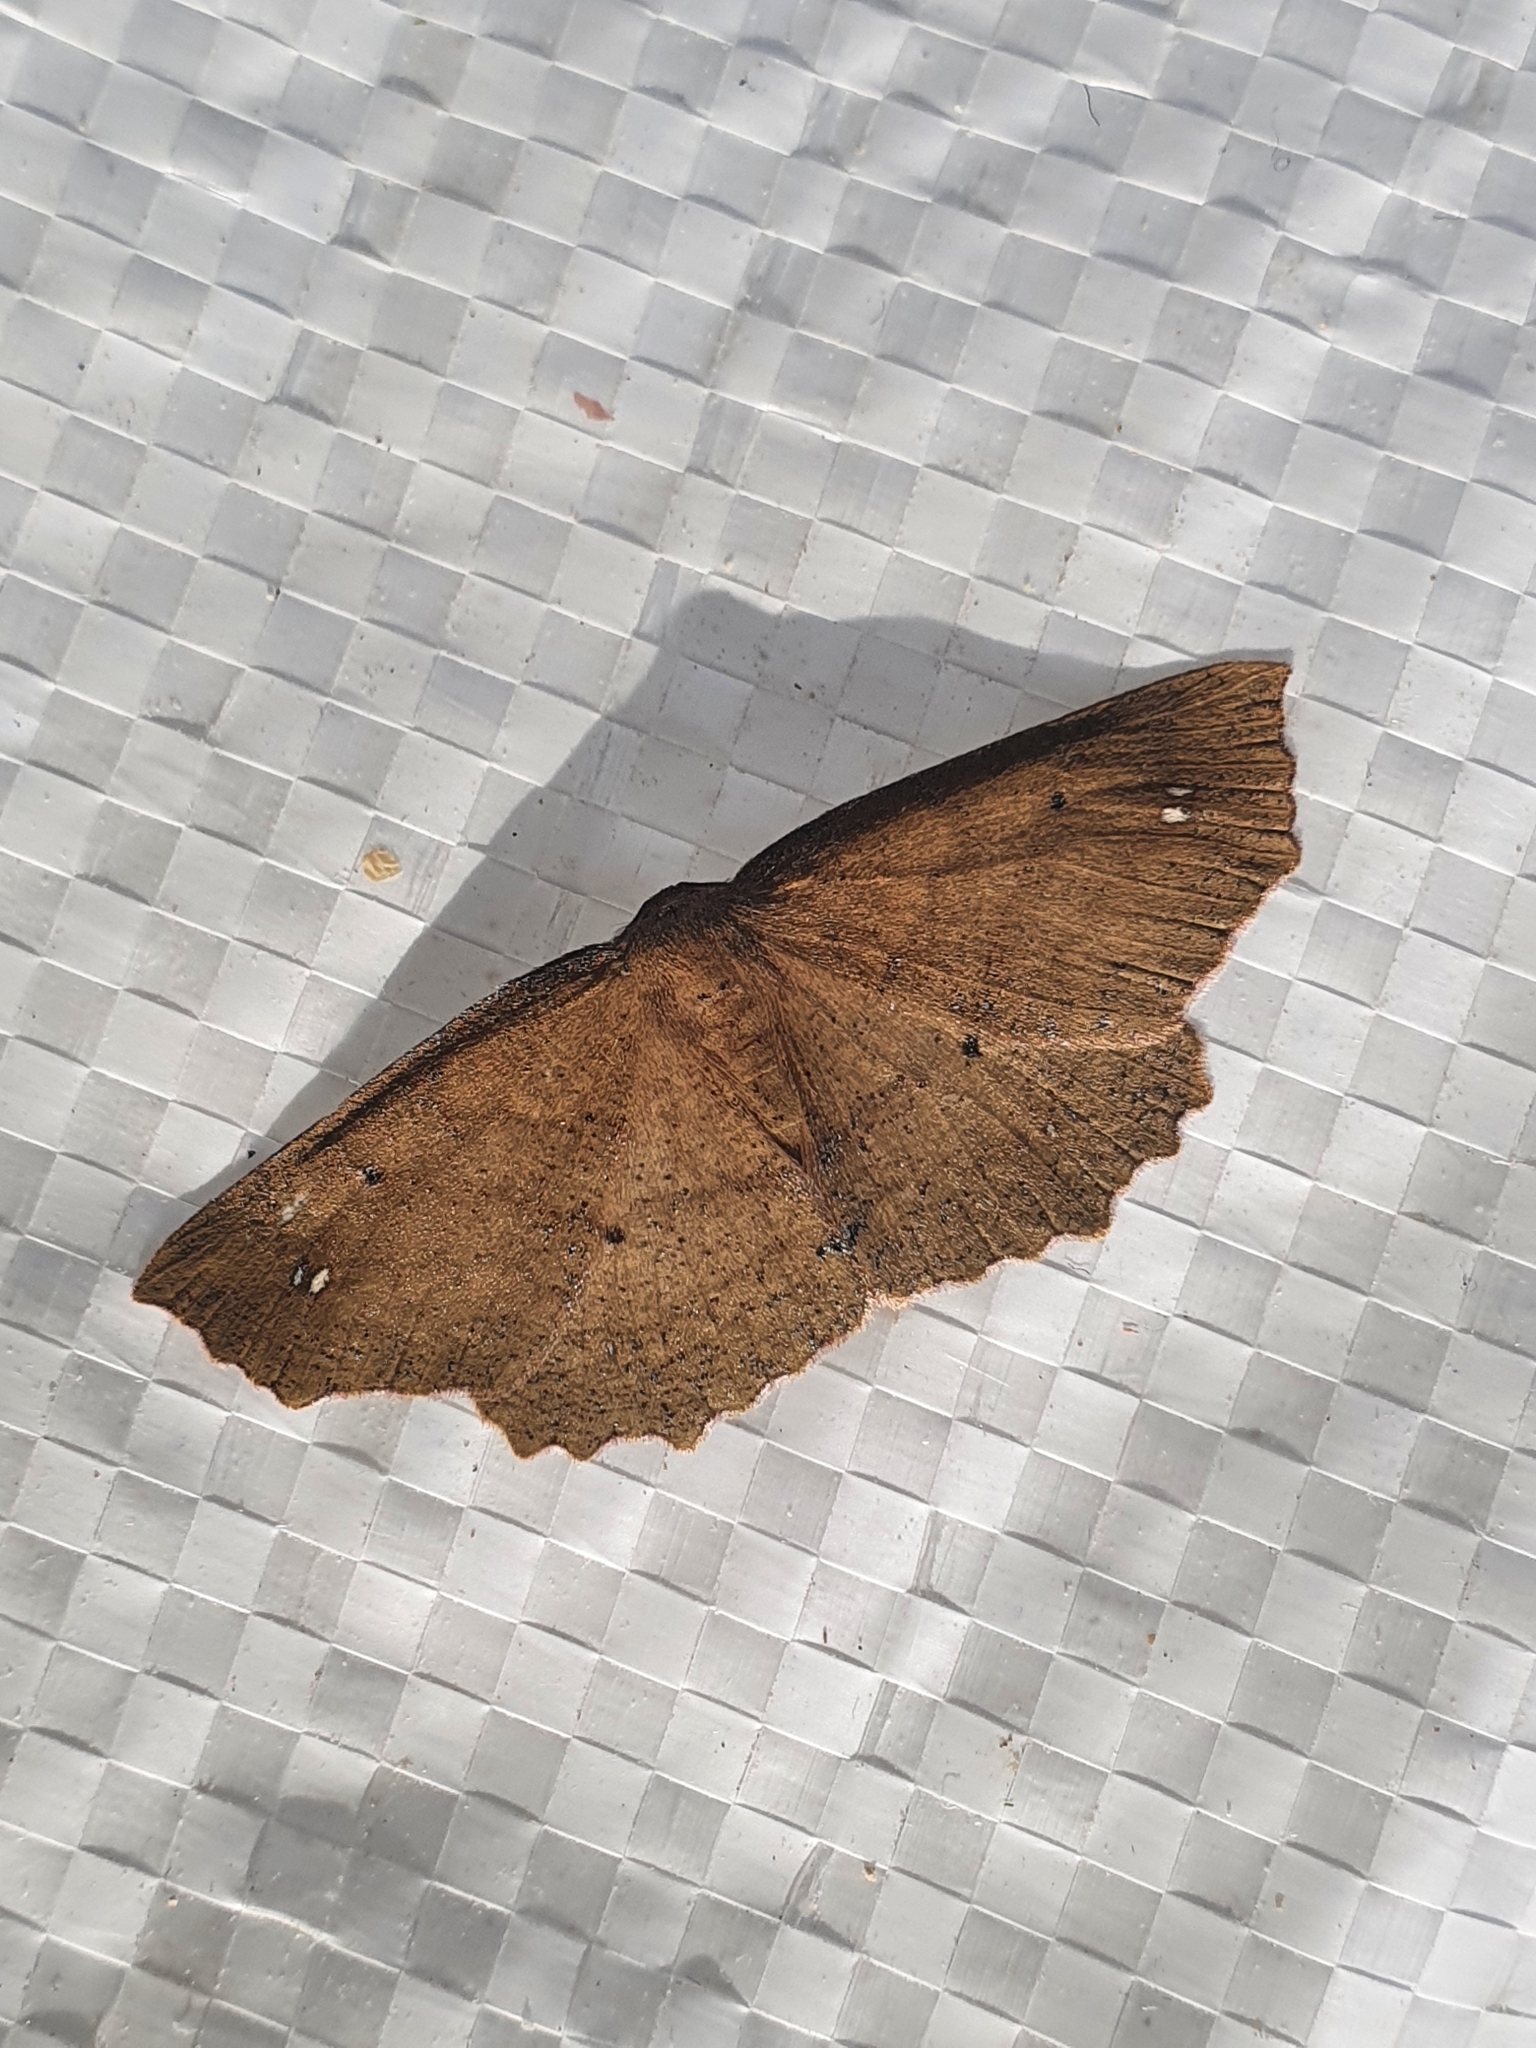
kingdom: Animalia
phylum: Arthropoda
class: Insecta
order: Lepidoptera
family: Geometridae
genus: Xyridacma
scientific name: Xyridacma ustaria
